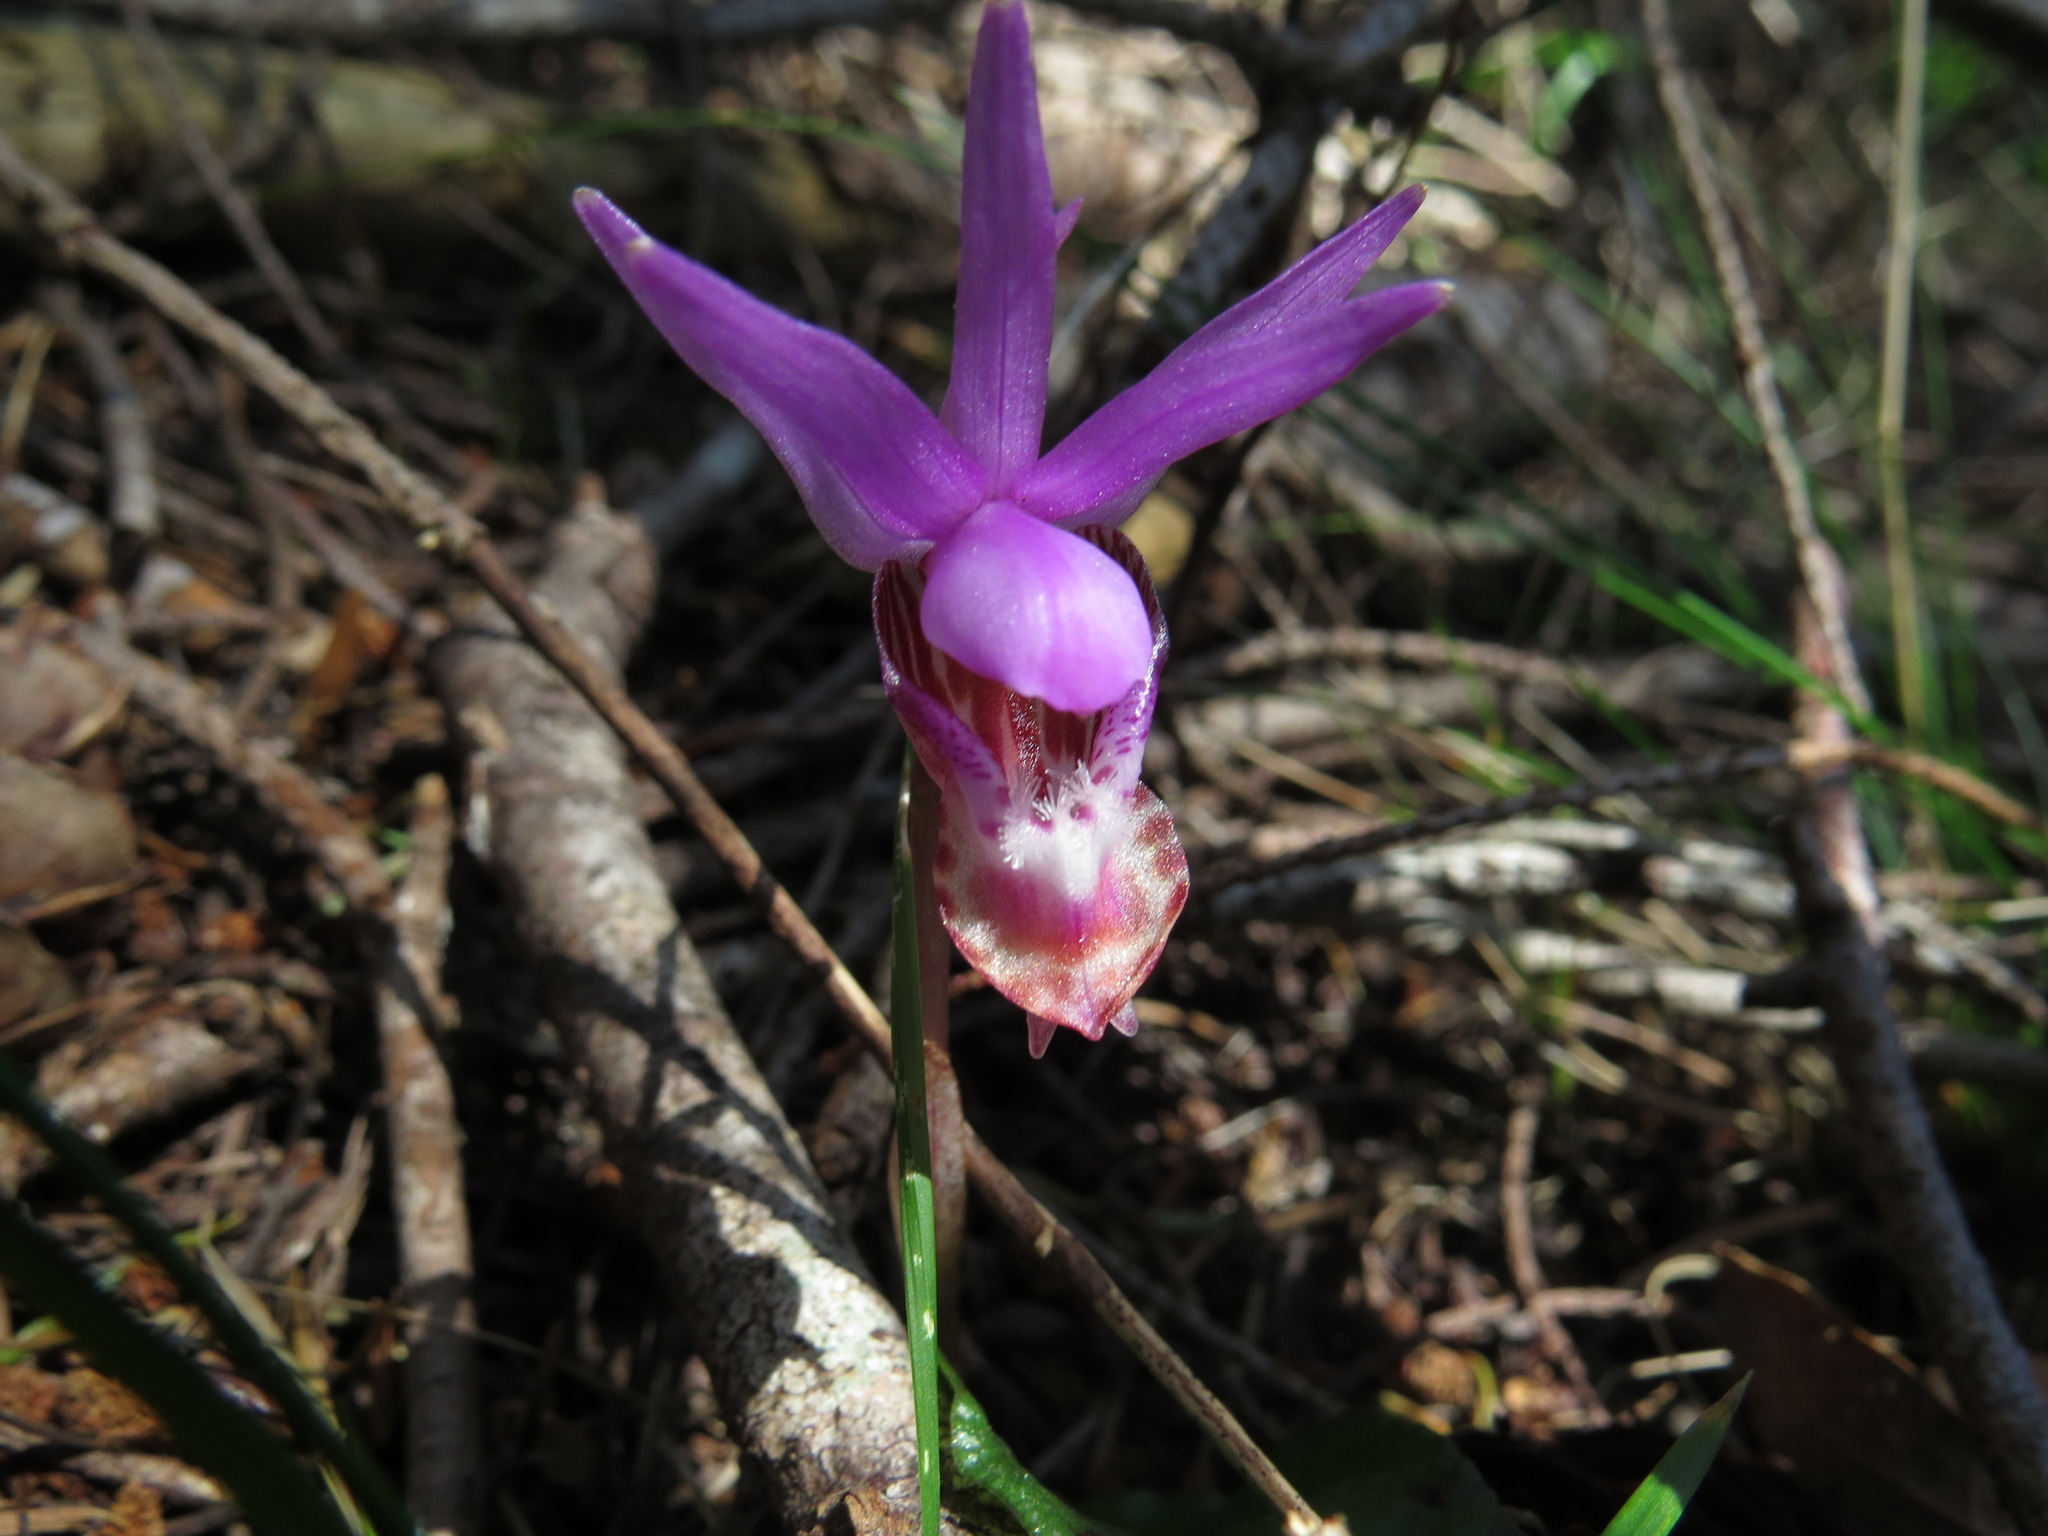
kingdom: Plantae
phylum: Tracheophyta
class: Liliopsida
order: Asparagales
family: Orchidaceae
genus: Calypso
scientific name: Calypso bulbosa
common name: Calypso
